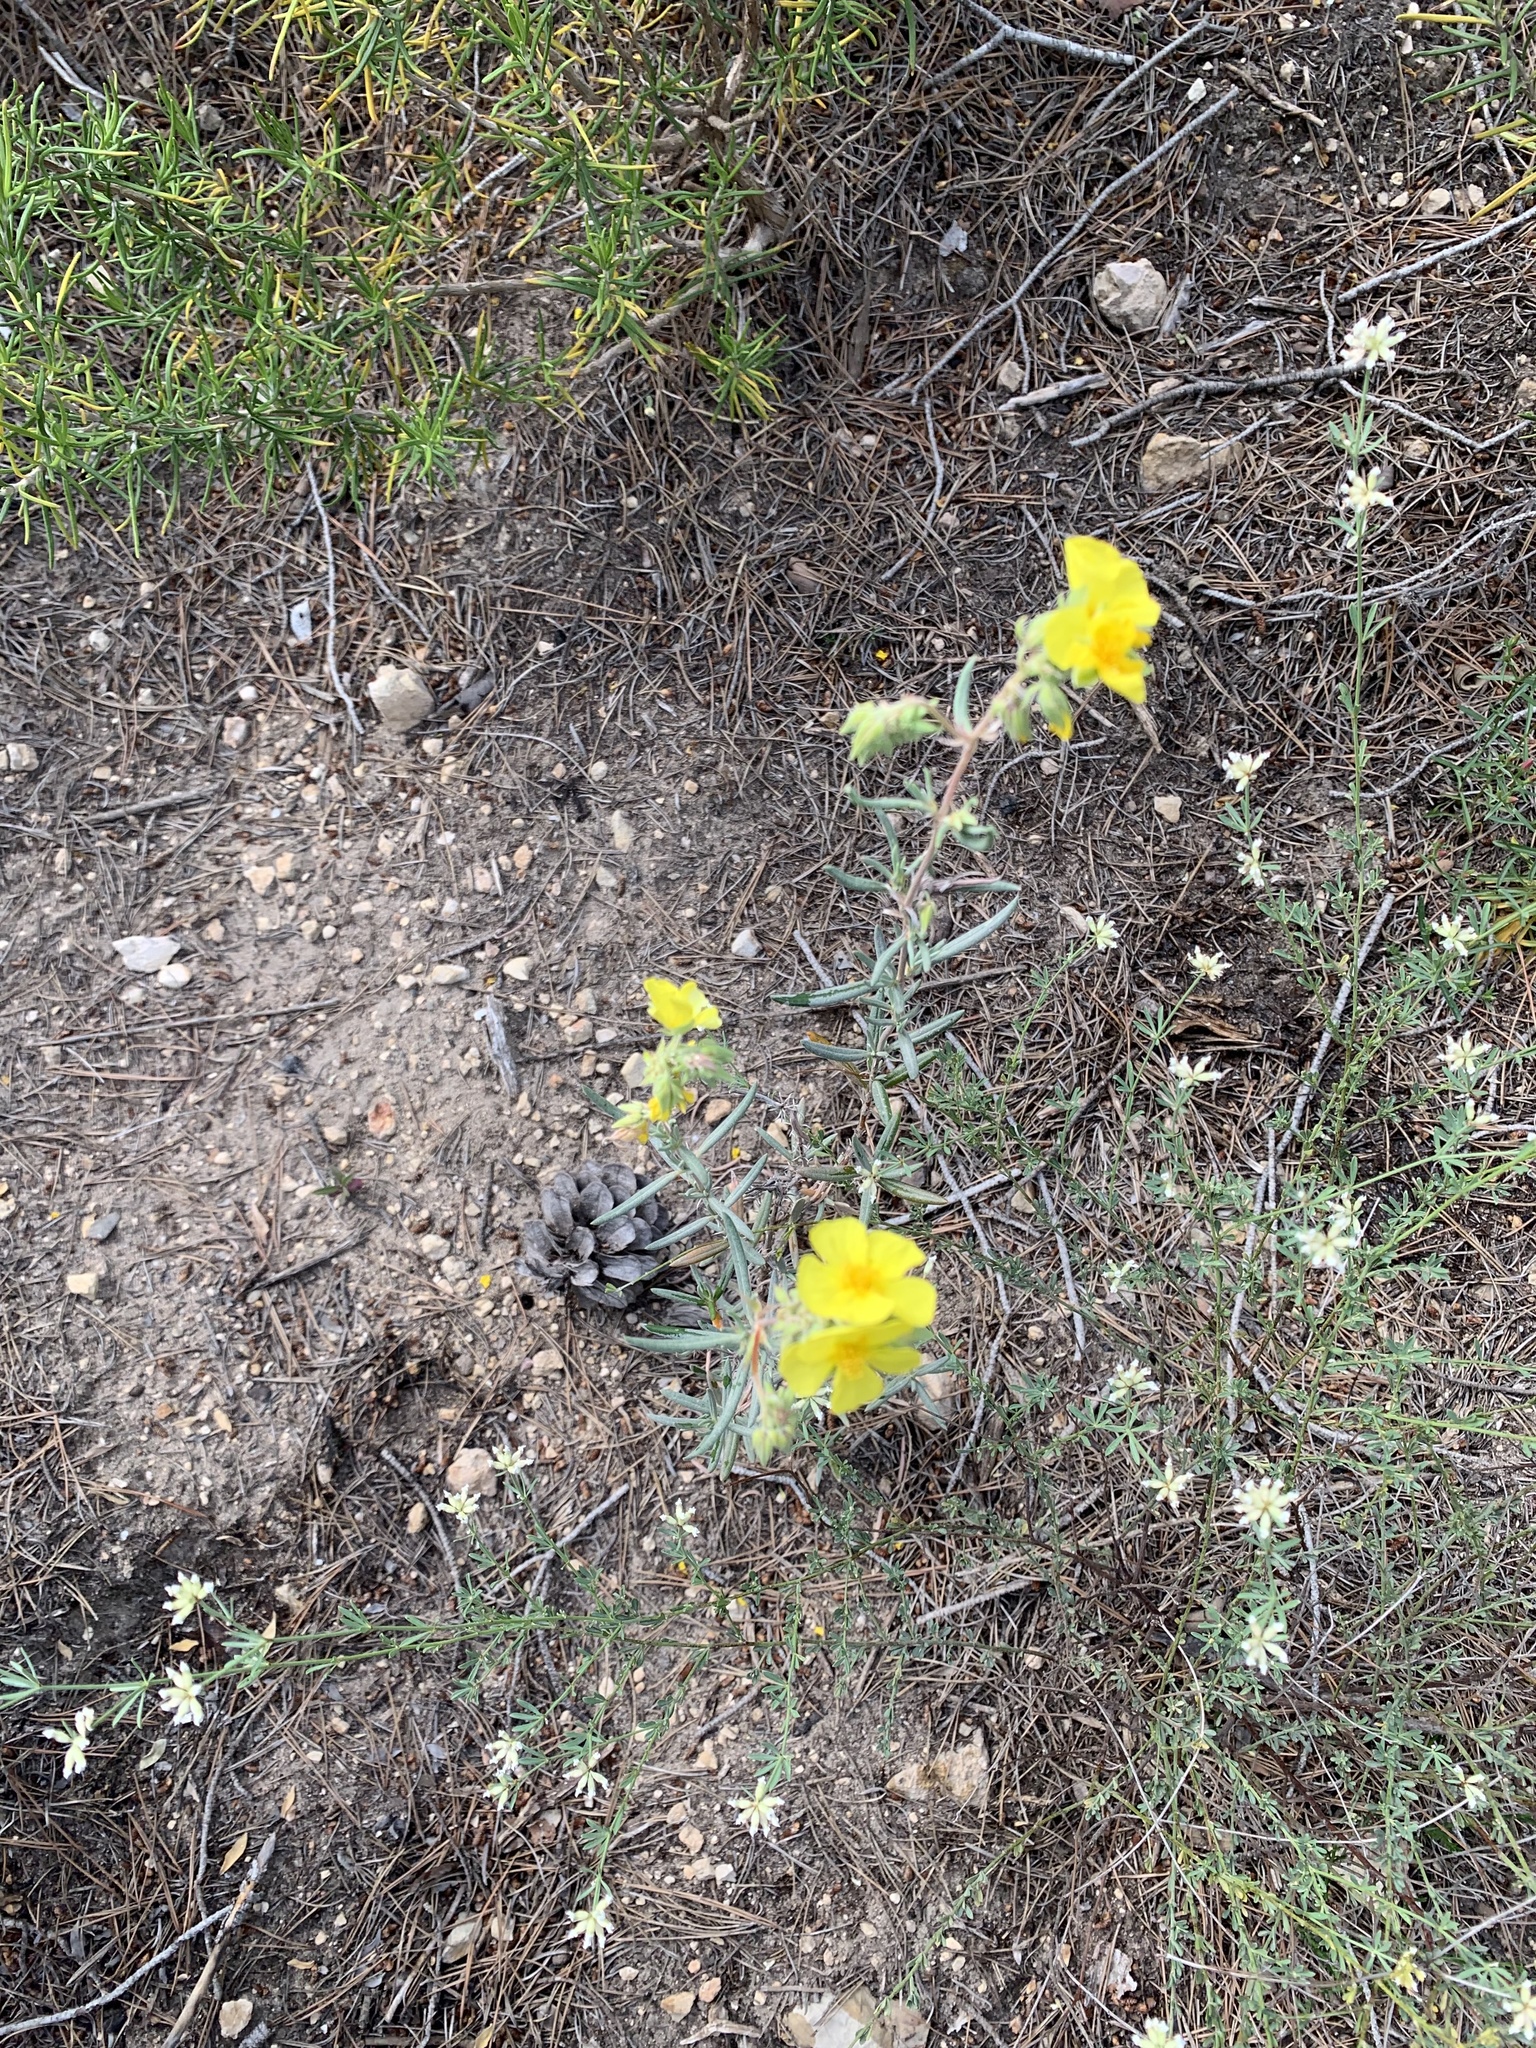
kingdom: Plantae
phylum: Tracheophyta
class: Magnoliopsida
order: Malvales
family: Cistaceae
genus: Helianthemum
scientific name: Helianthemum syriacum
